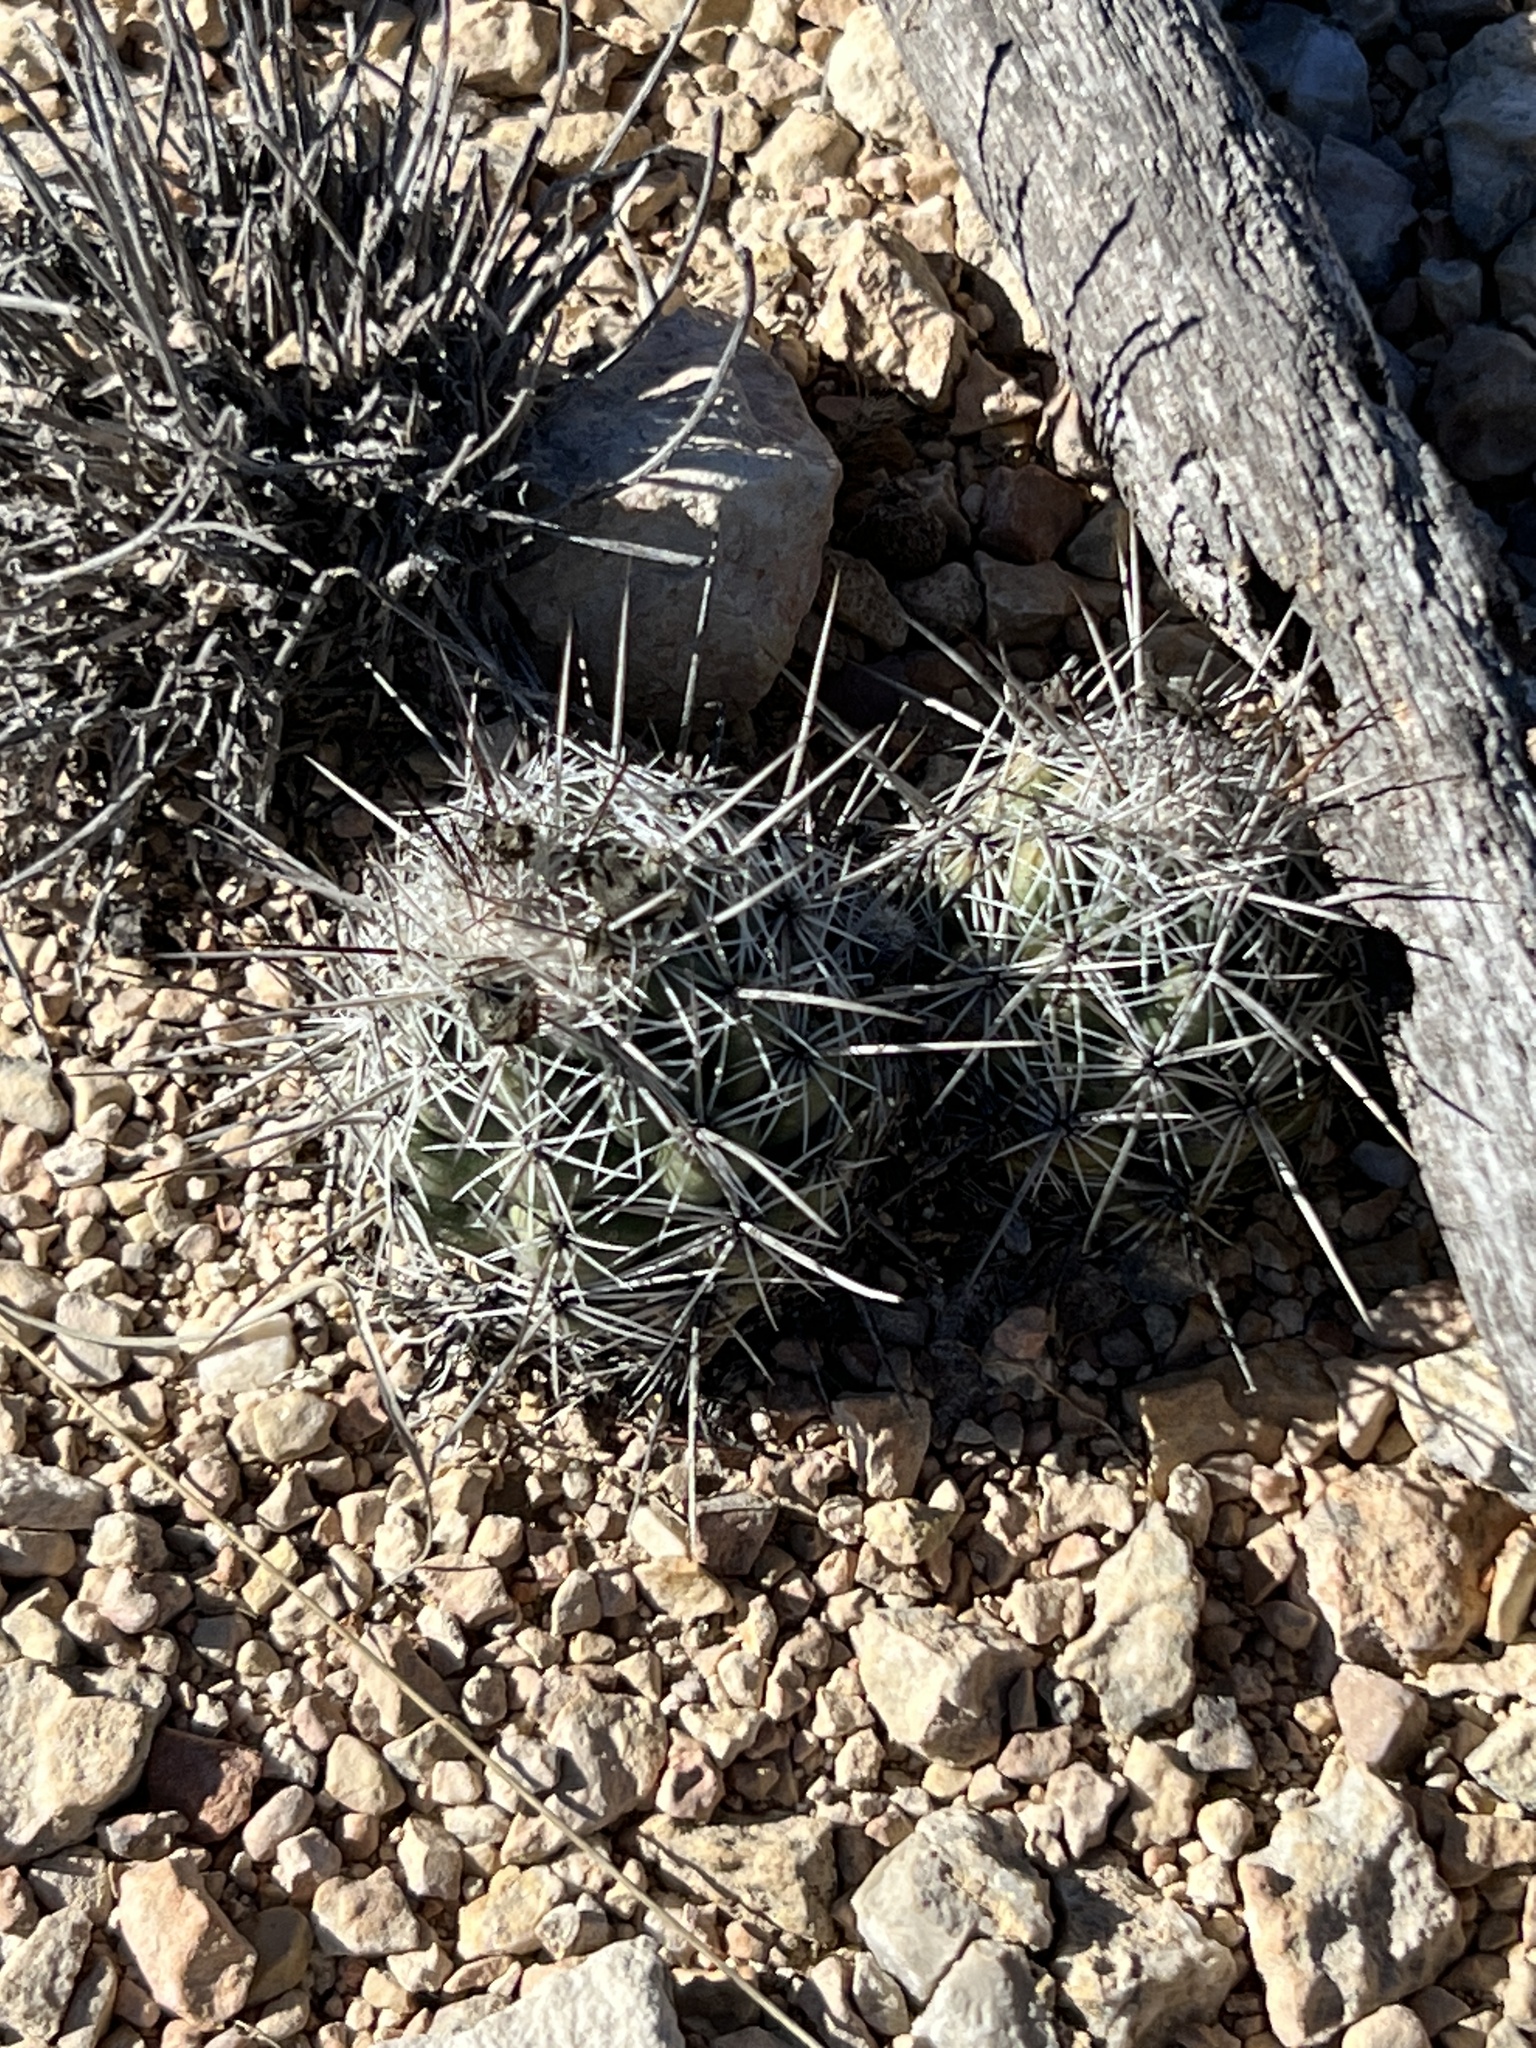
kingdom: Plantae
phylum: Tracheophyta
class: Magnoliopsida
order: Caryophyllales
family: Cactaceae
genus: Cochemiea
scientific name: Cochemiea conoidea
